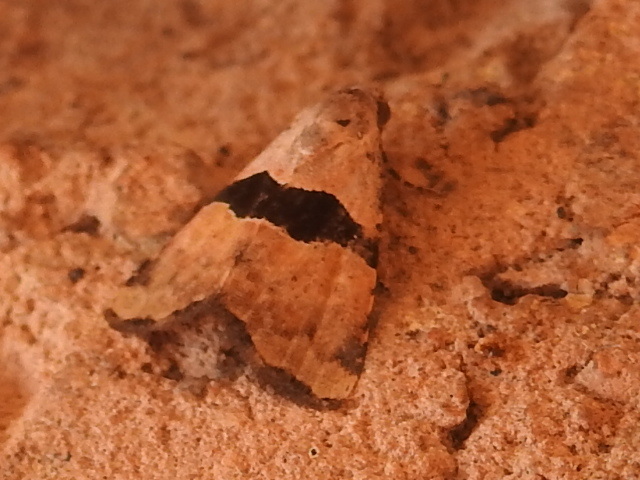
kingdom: Animalia
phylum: Arthropoda
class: Insecta
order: Lepidoptera
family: Noctuidae
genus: Cobubatha
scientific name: Cobubatha lixiva
